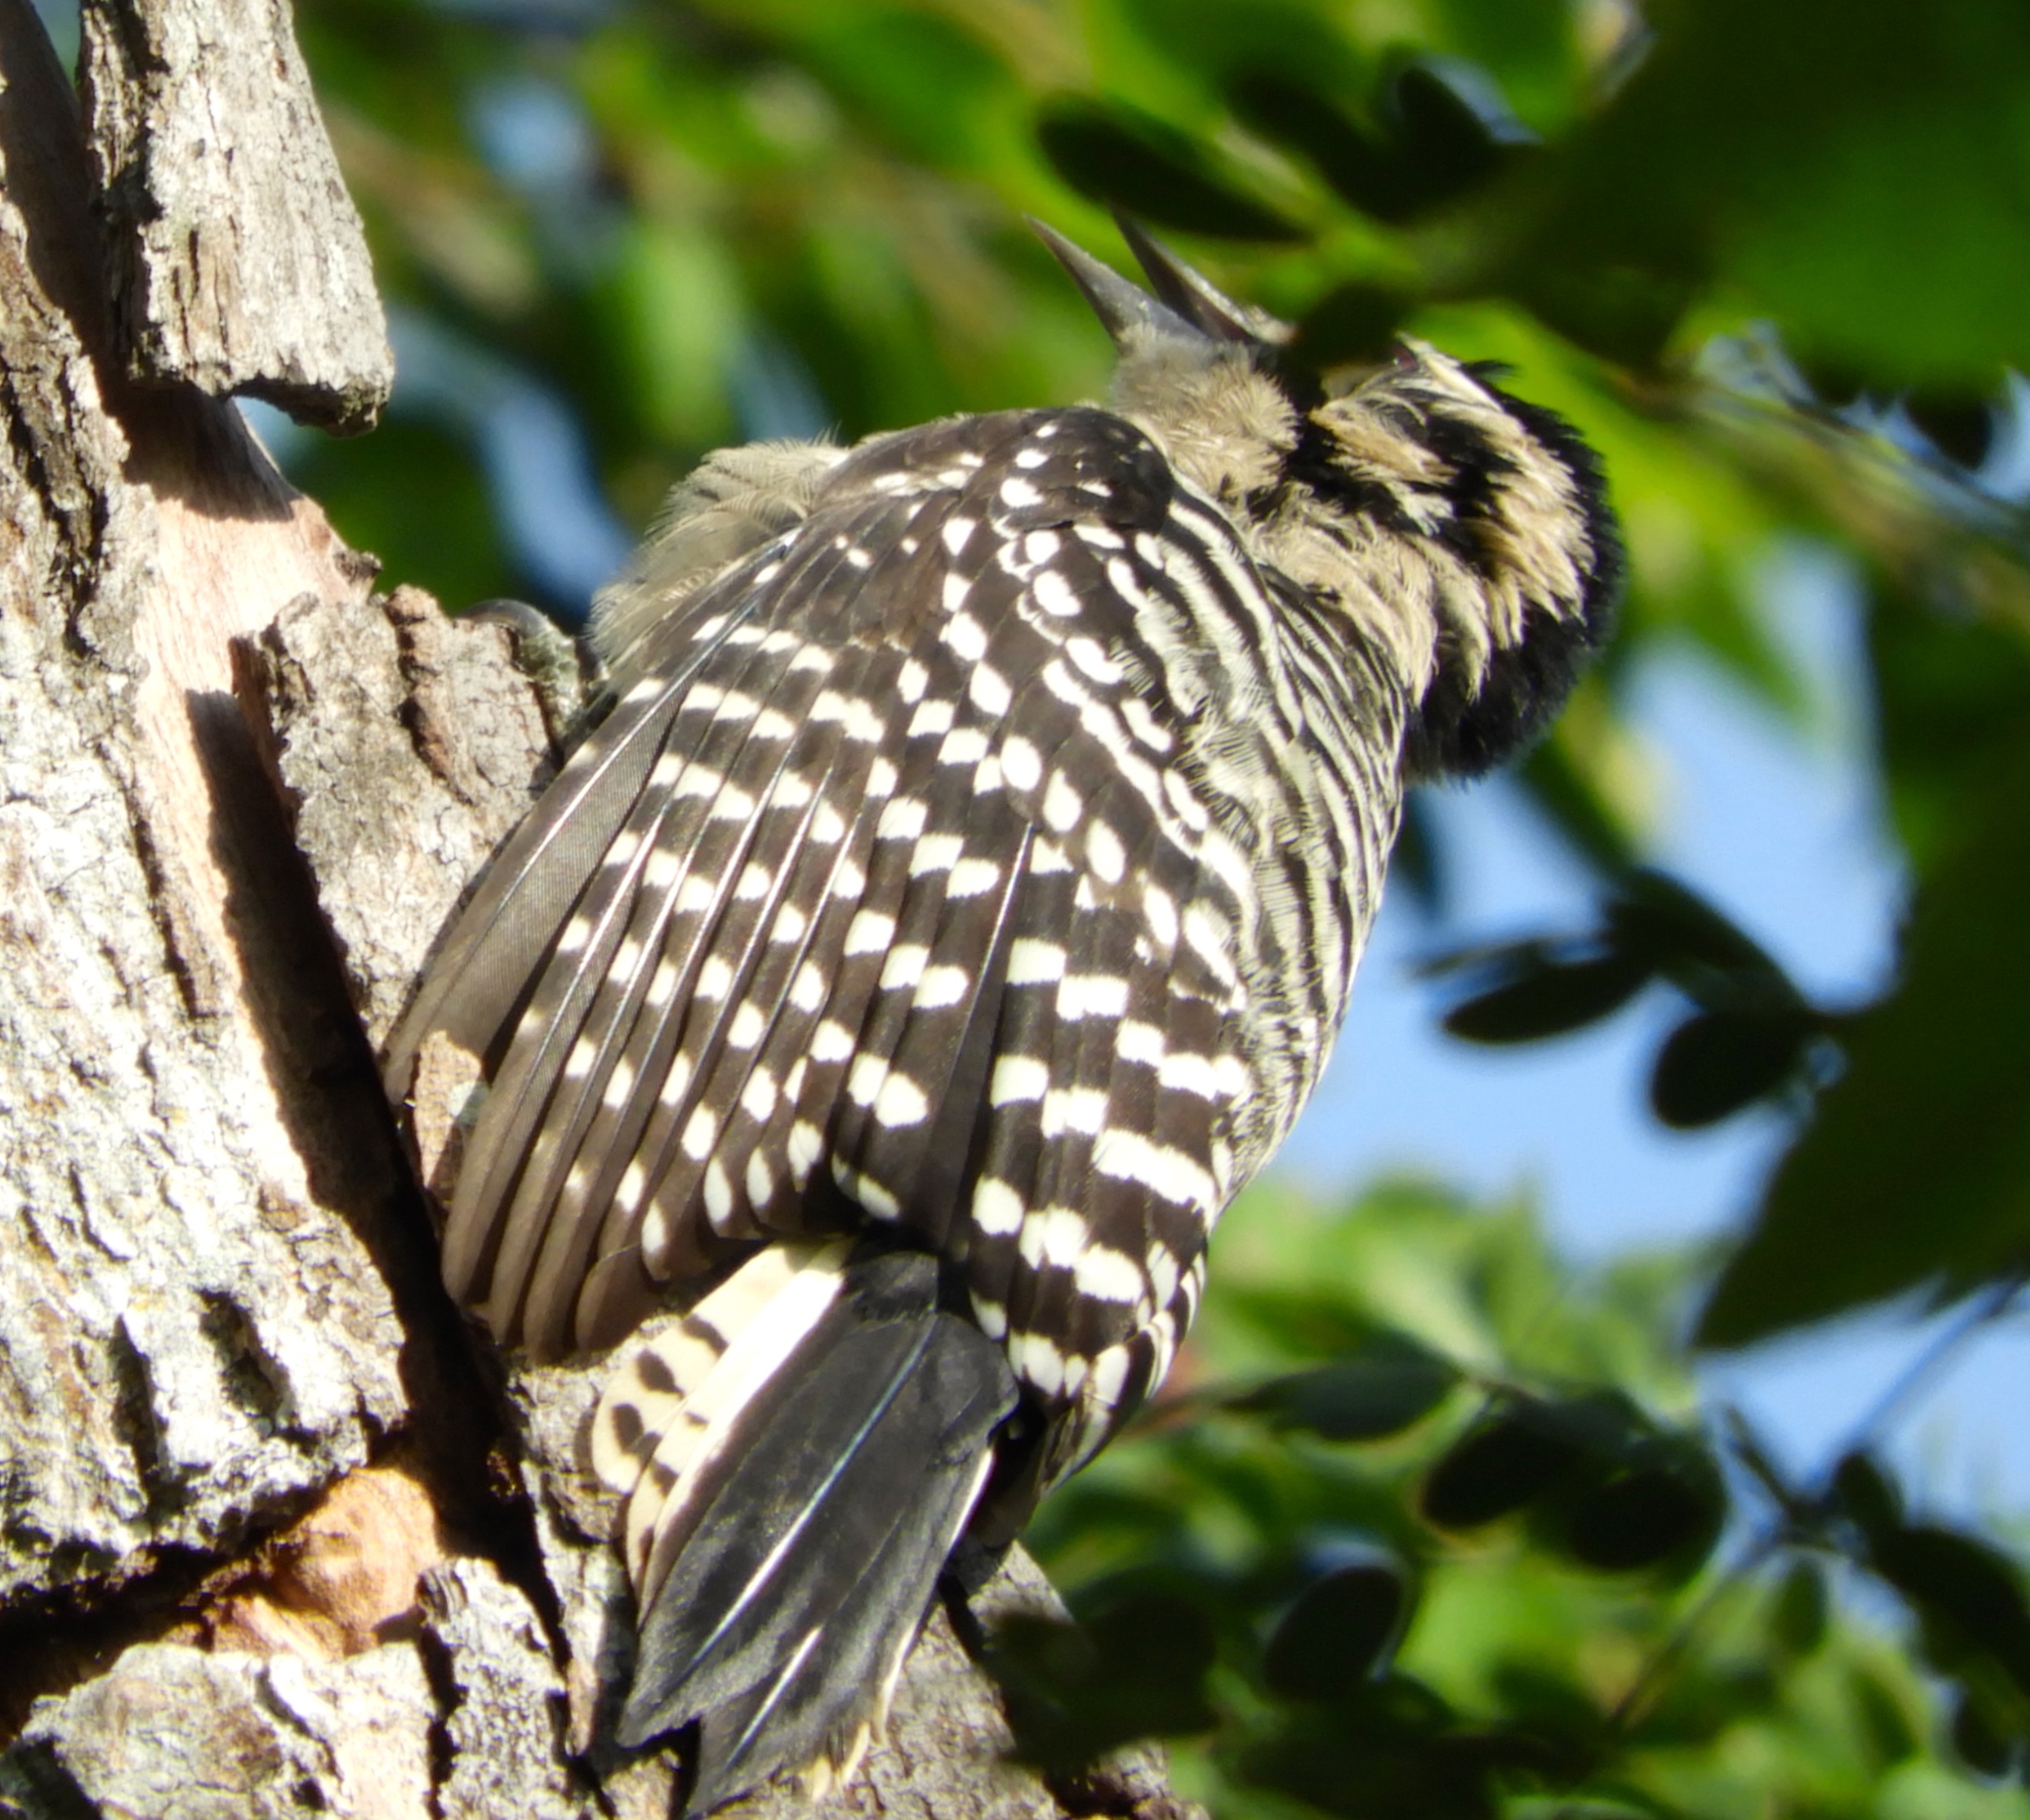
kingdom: Animalia
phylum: Chordata
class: Aves
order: Piciformes
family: Picidae
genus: Dryobates
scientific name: Dryobates scalaris
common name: Ladder-backed woodpecker
